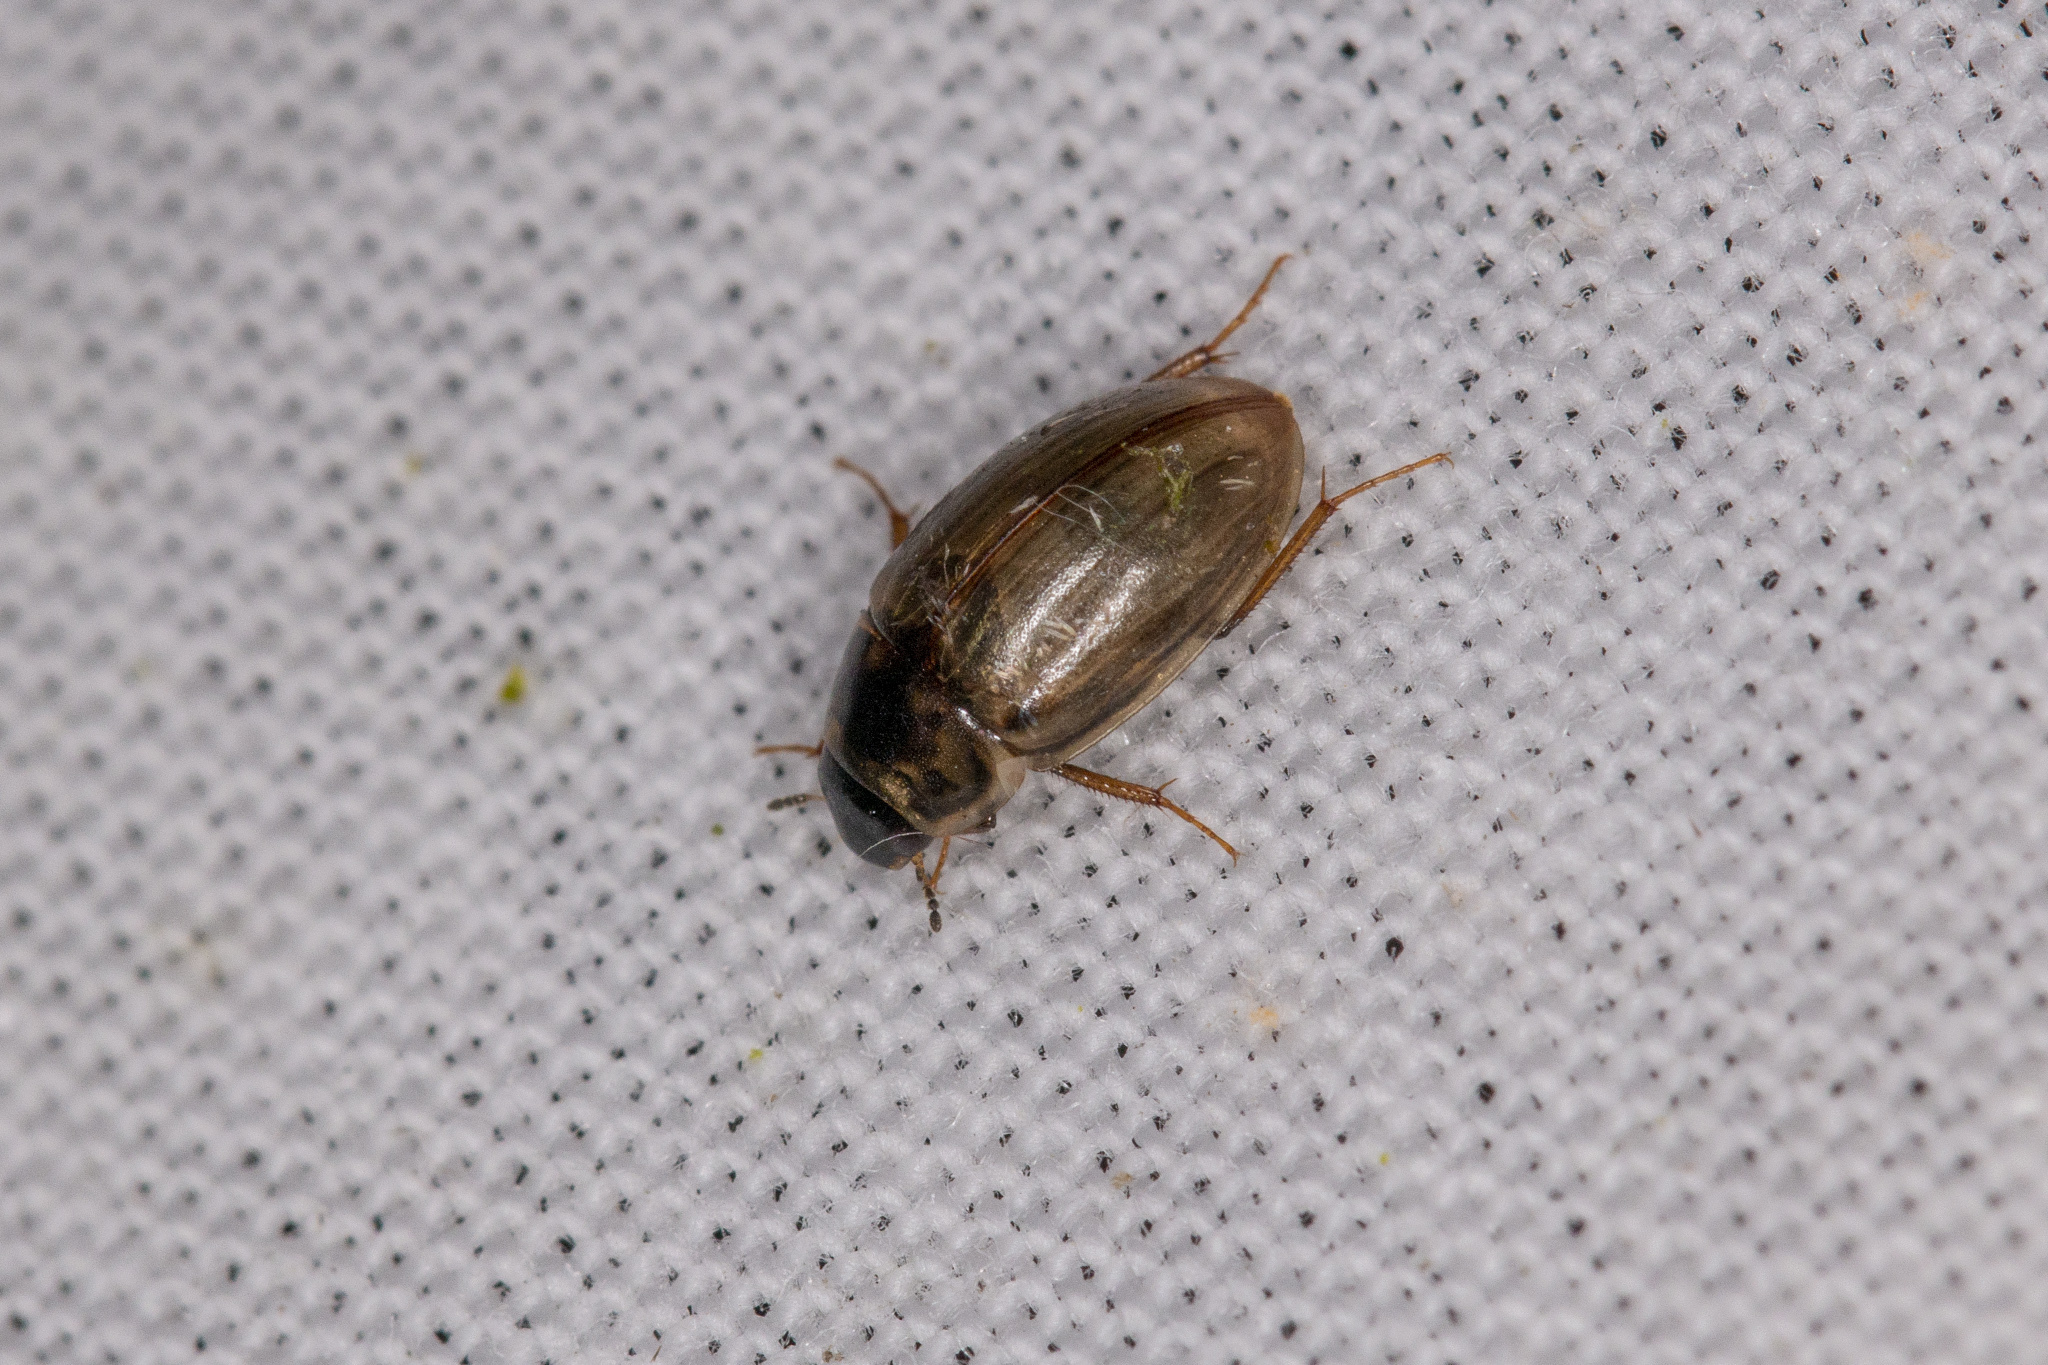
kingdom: Animalia
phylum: Arthropoda
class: Insecta
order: Coleoptera
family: Hydrophilidae
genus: Enochrus
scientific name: Enochrus quadripunctatus
